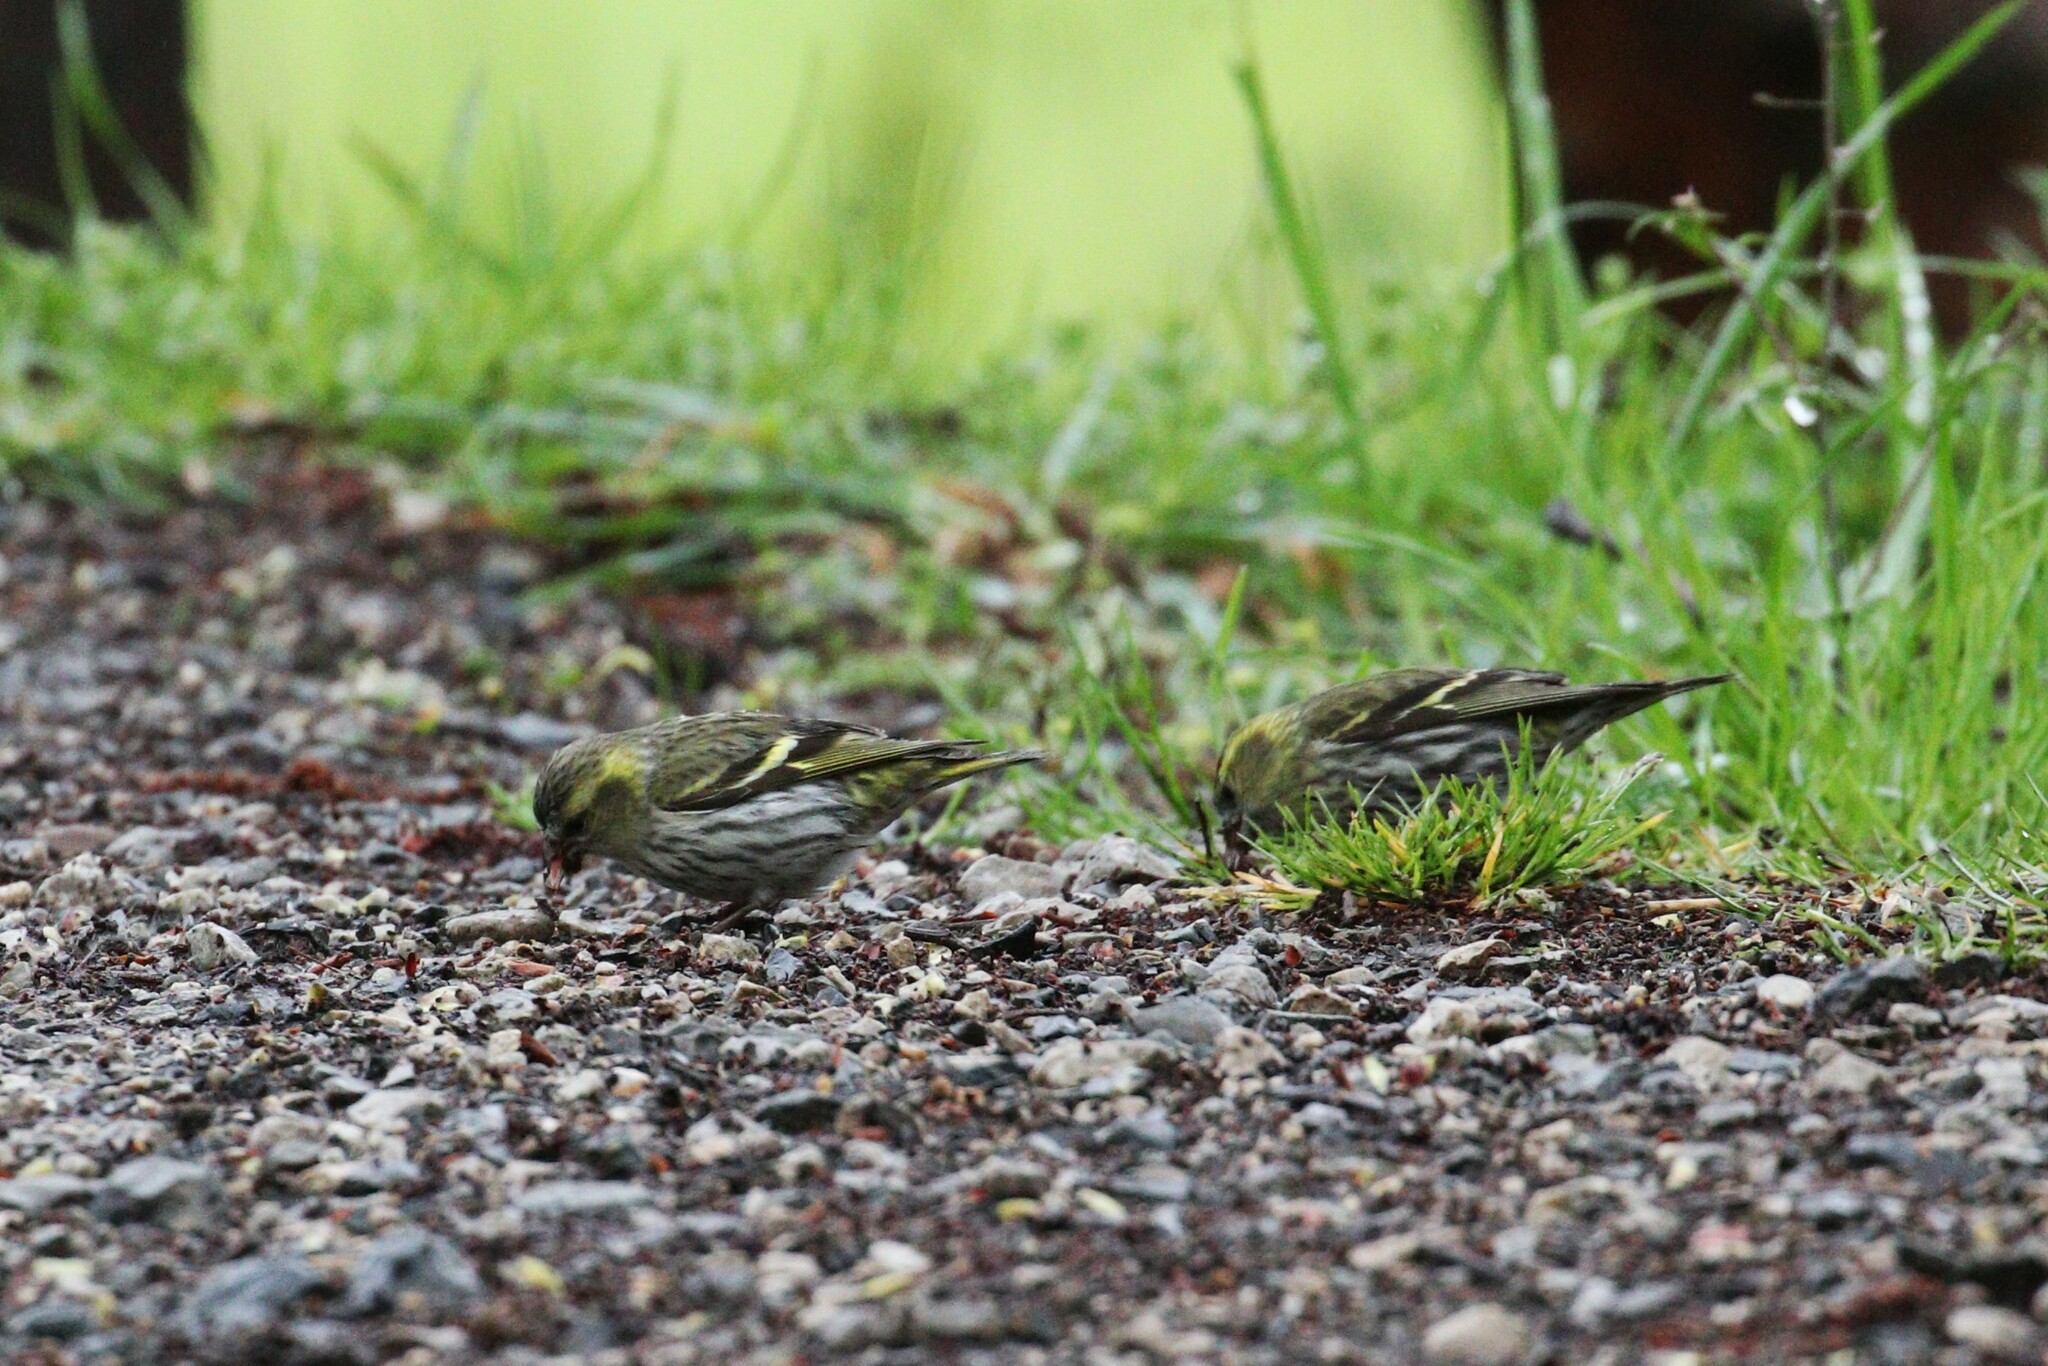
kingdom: Animalia
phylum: Chordata
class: Aves
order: Passeriformes
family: Fringillidae
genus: Spinus
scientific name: Spinus spinus
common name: Eurasian siskin
